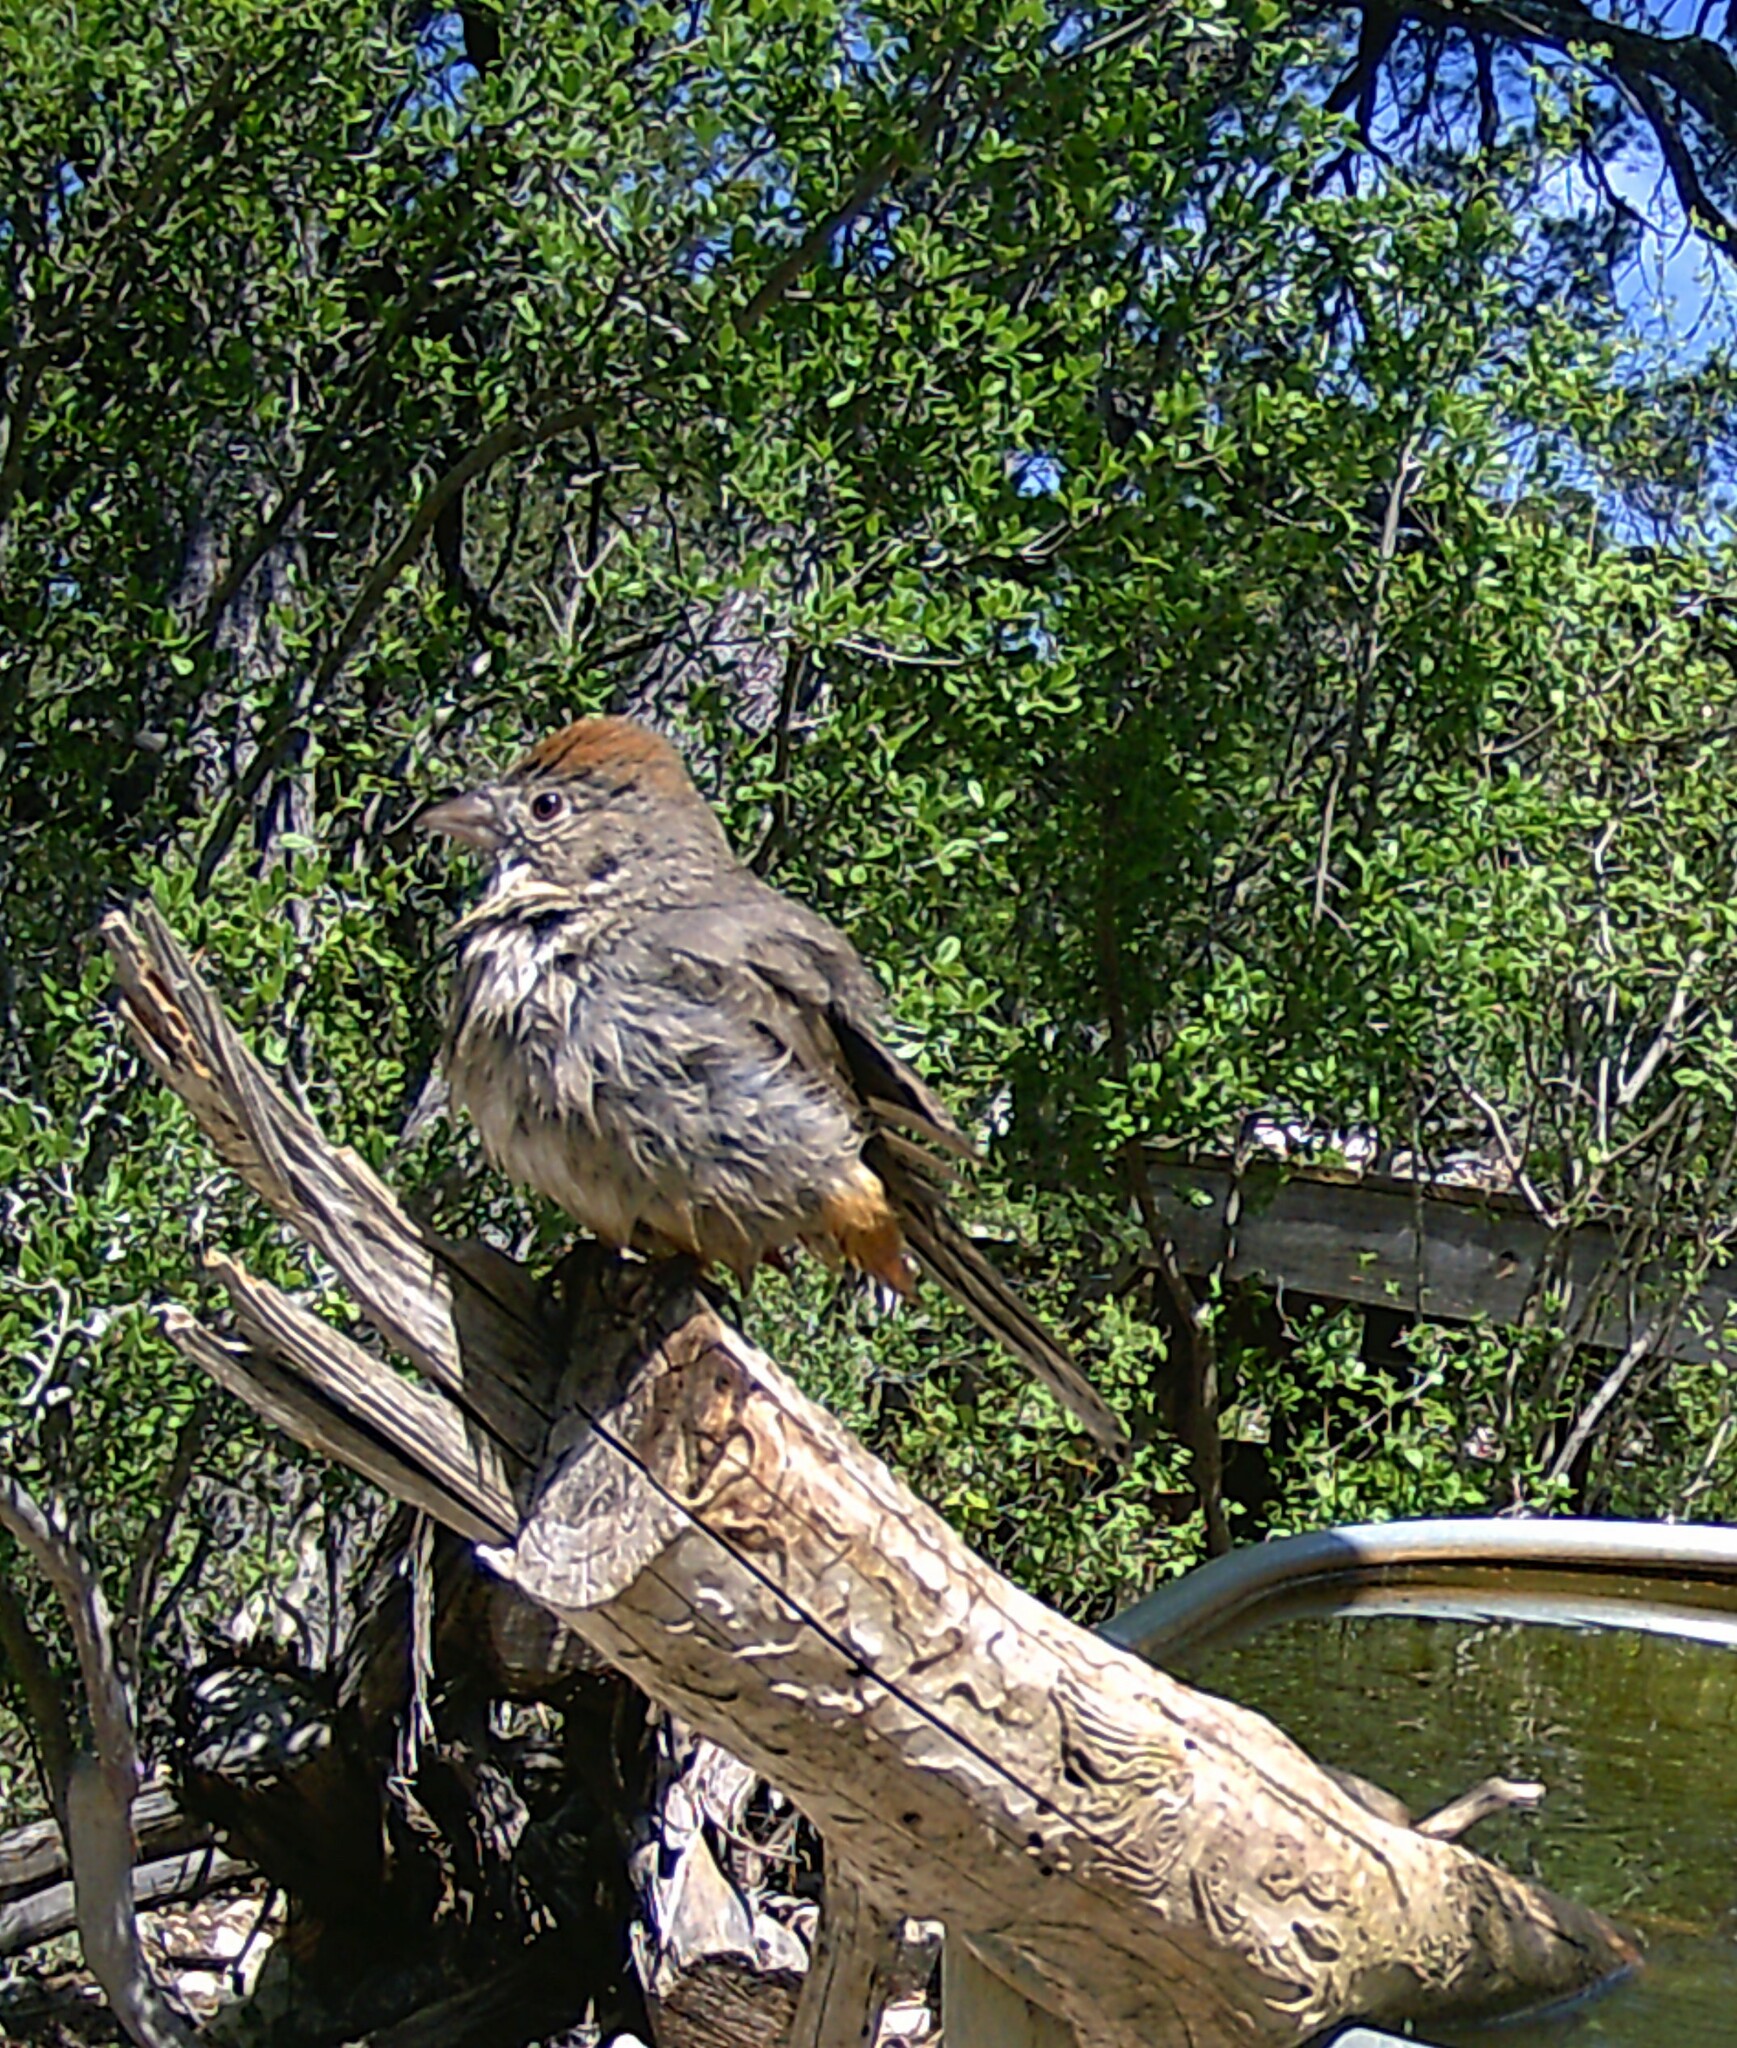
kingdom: Animalia
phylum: Chordata
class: Aves
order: Passeriformes
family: Passerellidae
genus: Melozone
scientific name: Melozone fusca
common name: Canyon towhee
